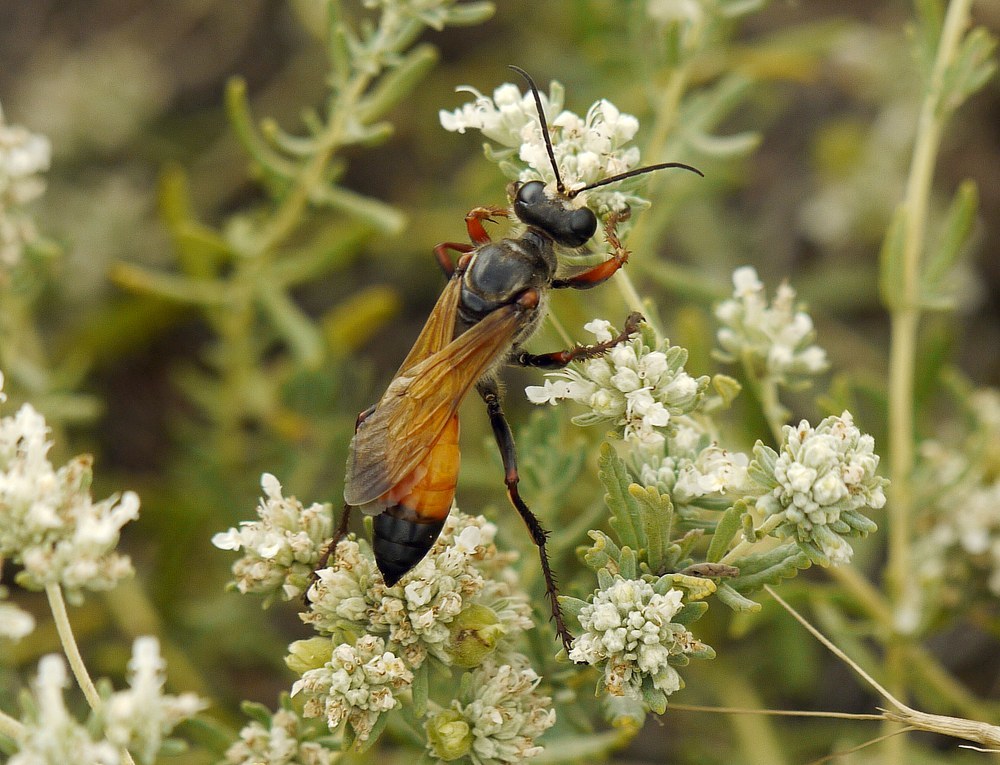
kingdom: Animalia
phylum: Arthropoda
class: Insecta
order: Hymenoptera
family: Sphecidae
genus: Sphex
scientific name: Sphex flavipennis
